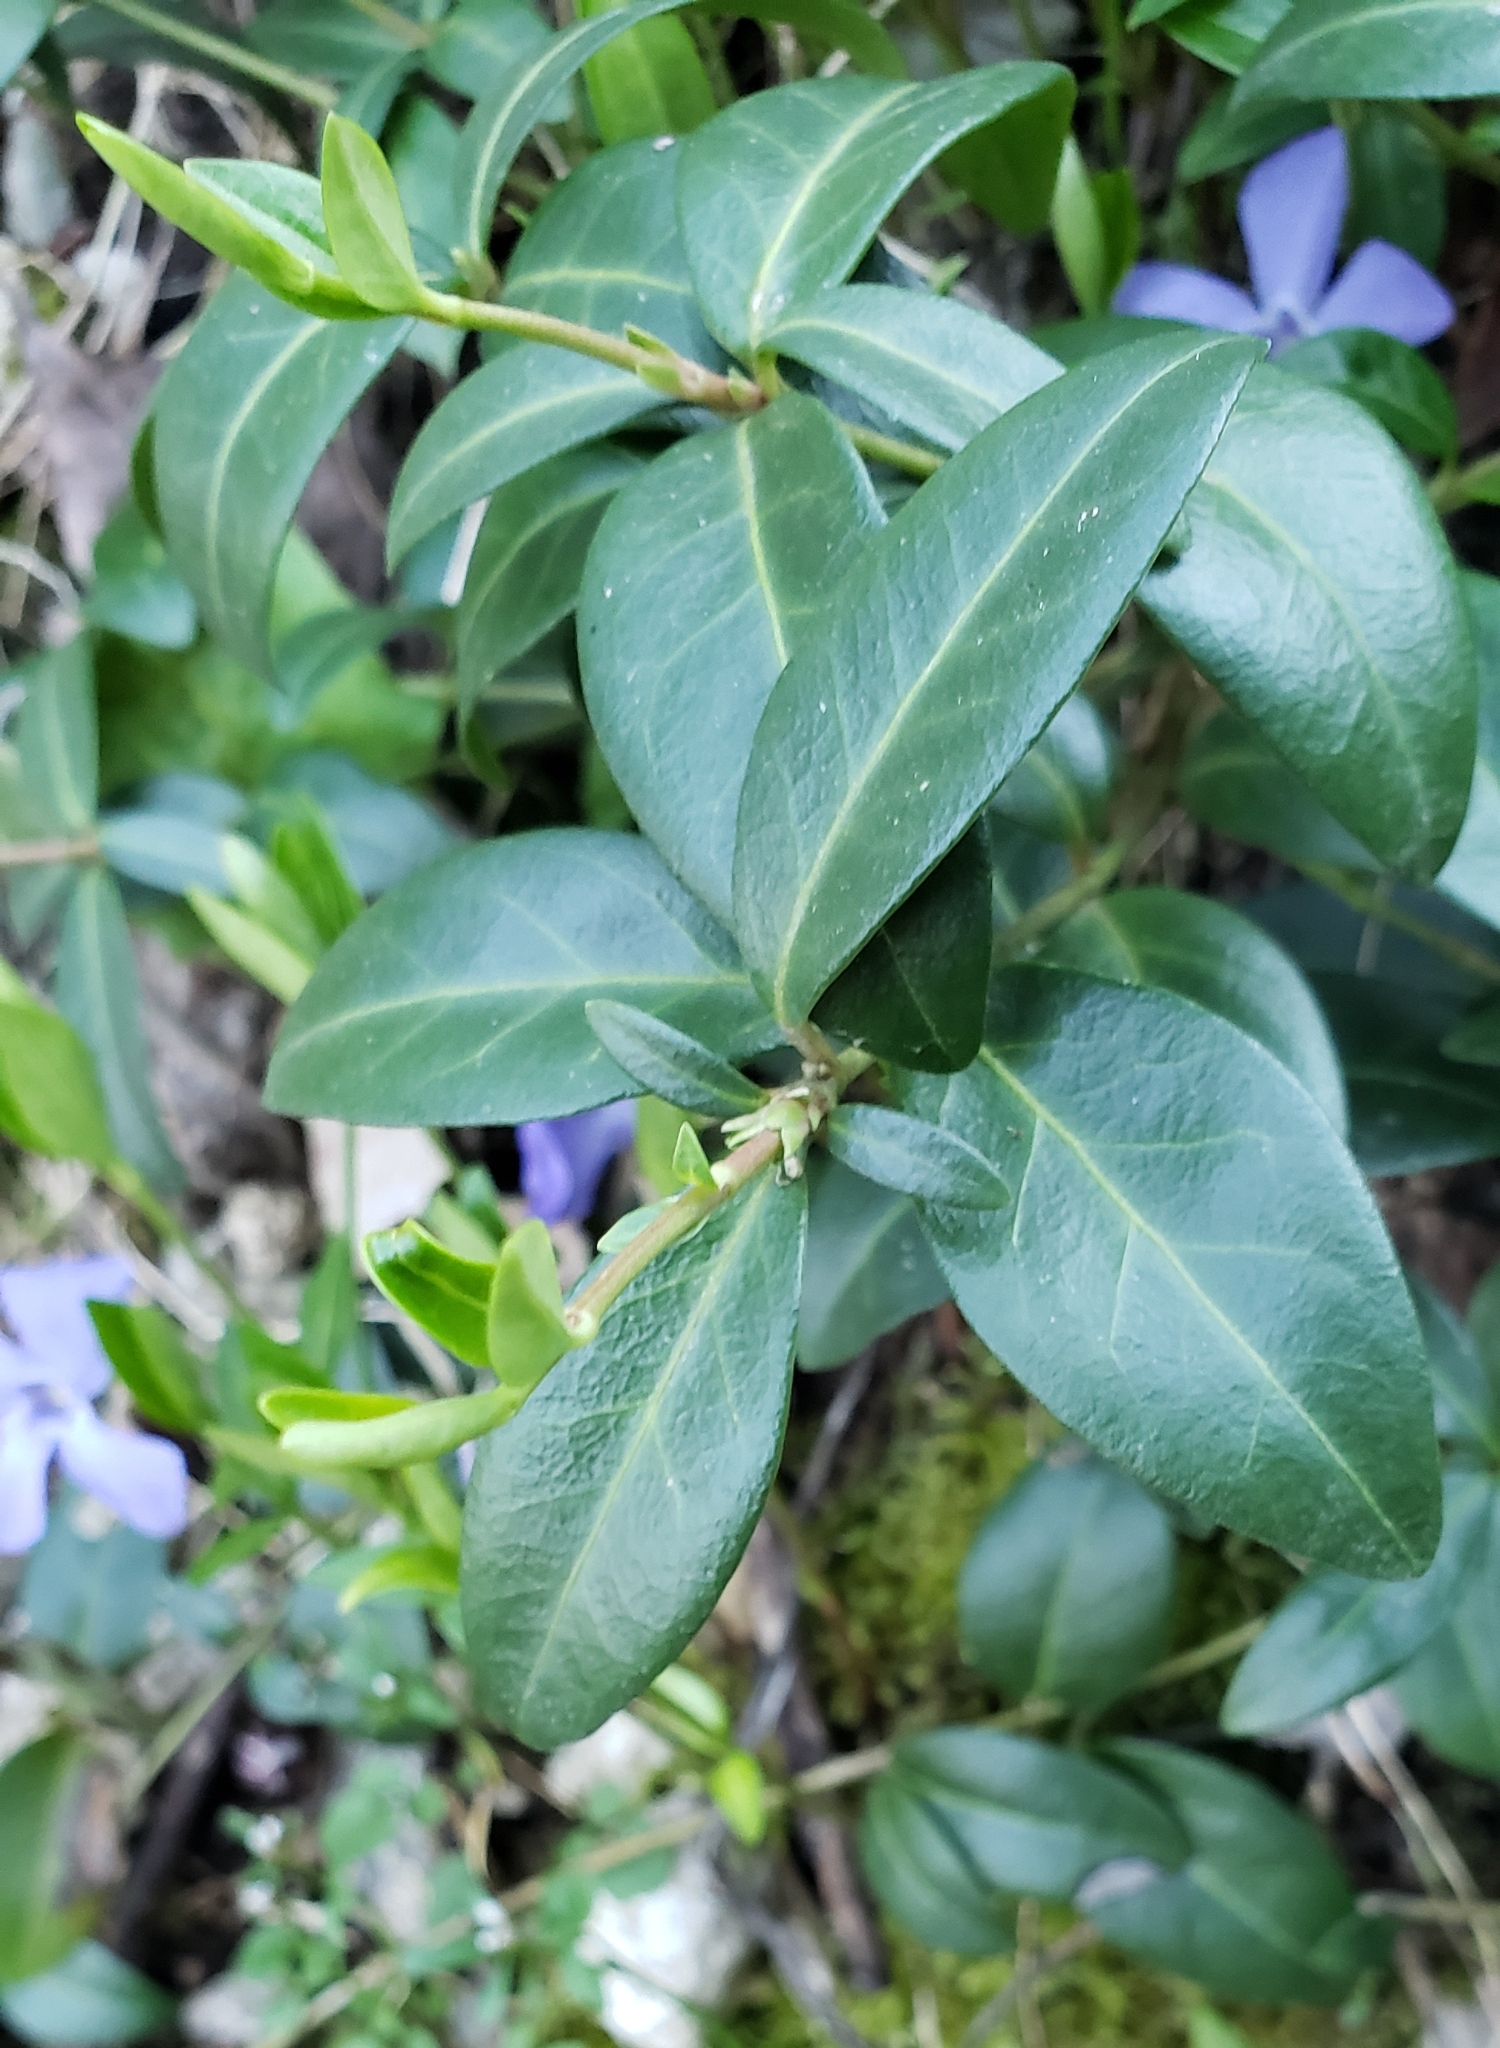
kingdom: Plantae
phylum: Tracheophyta
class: Magnoliopsida
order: Gentianales
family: Apocynaceae
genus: Vinca
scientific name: Vinca minor
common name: Lesser periwinkle
